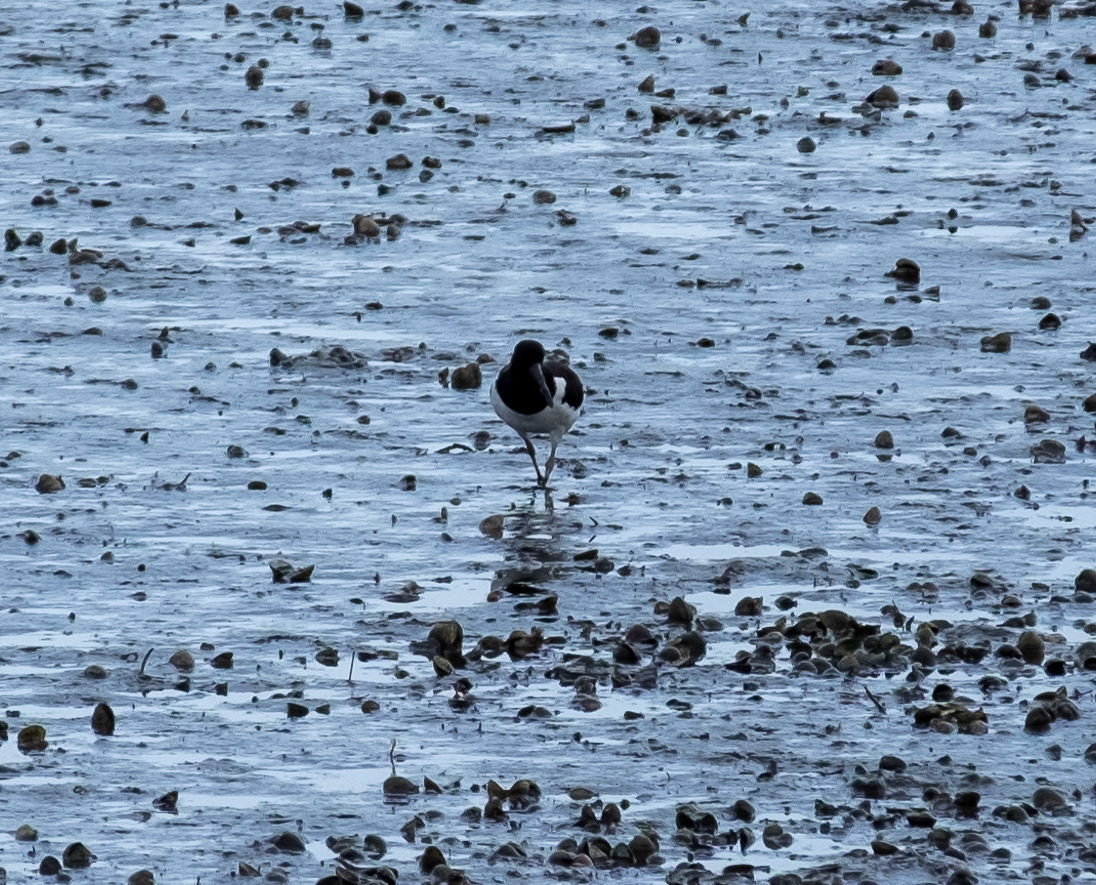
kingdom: Animalia
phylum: Chordata
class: Aves
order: Charadriiformes
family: Haematopodidae
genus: Haematopus
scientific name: Haematopus ostralegus
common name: Eurasian oystercatcher
